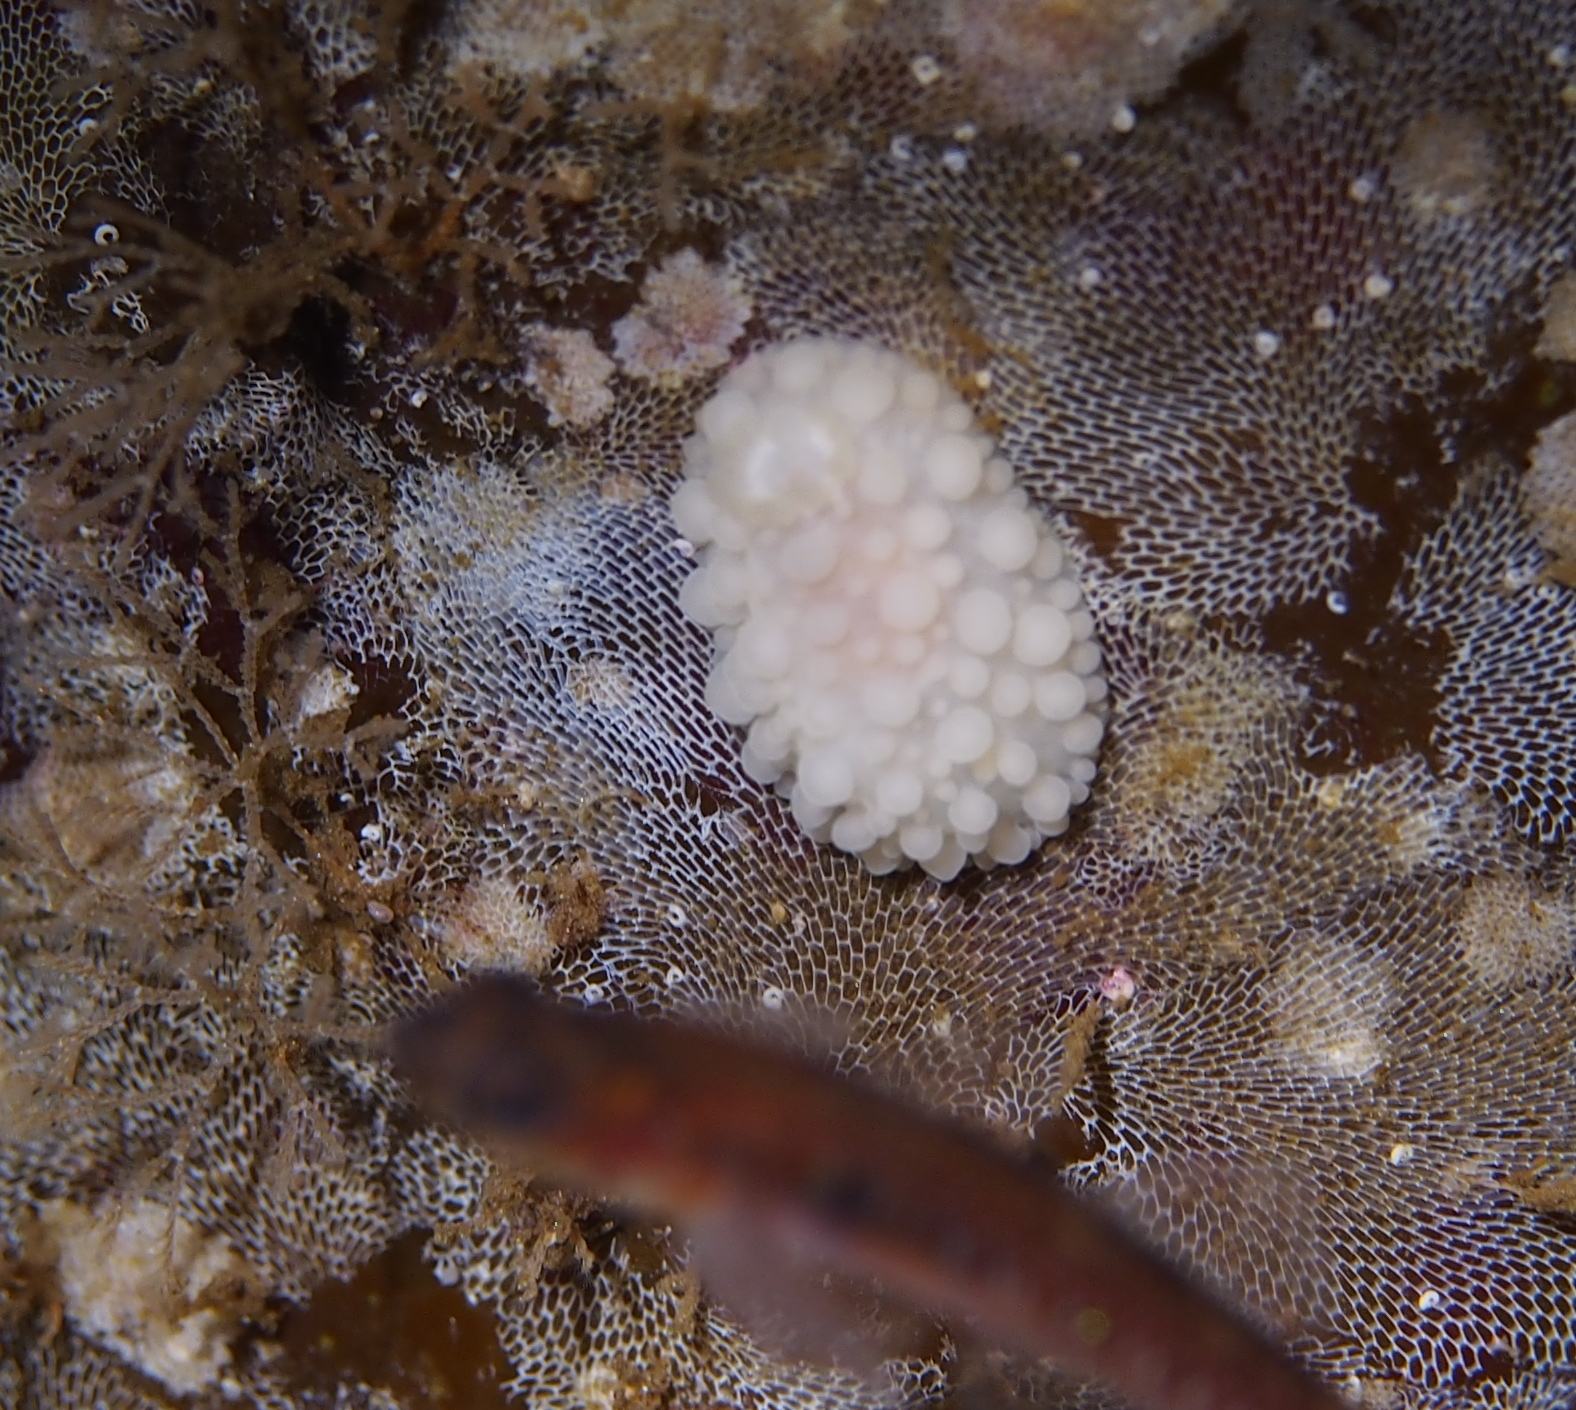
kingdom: Animalia
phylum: Mollusca
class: Gastropoda
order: Nudibranchia
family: Onchidorididae
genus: Adalaria
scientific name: Adalaria loveni
